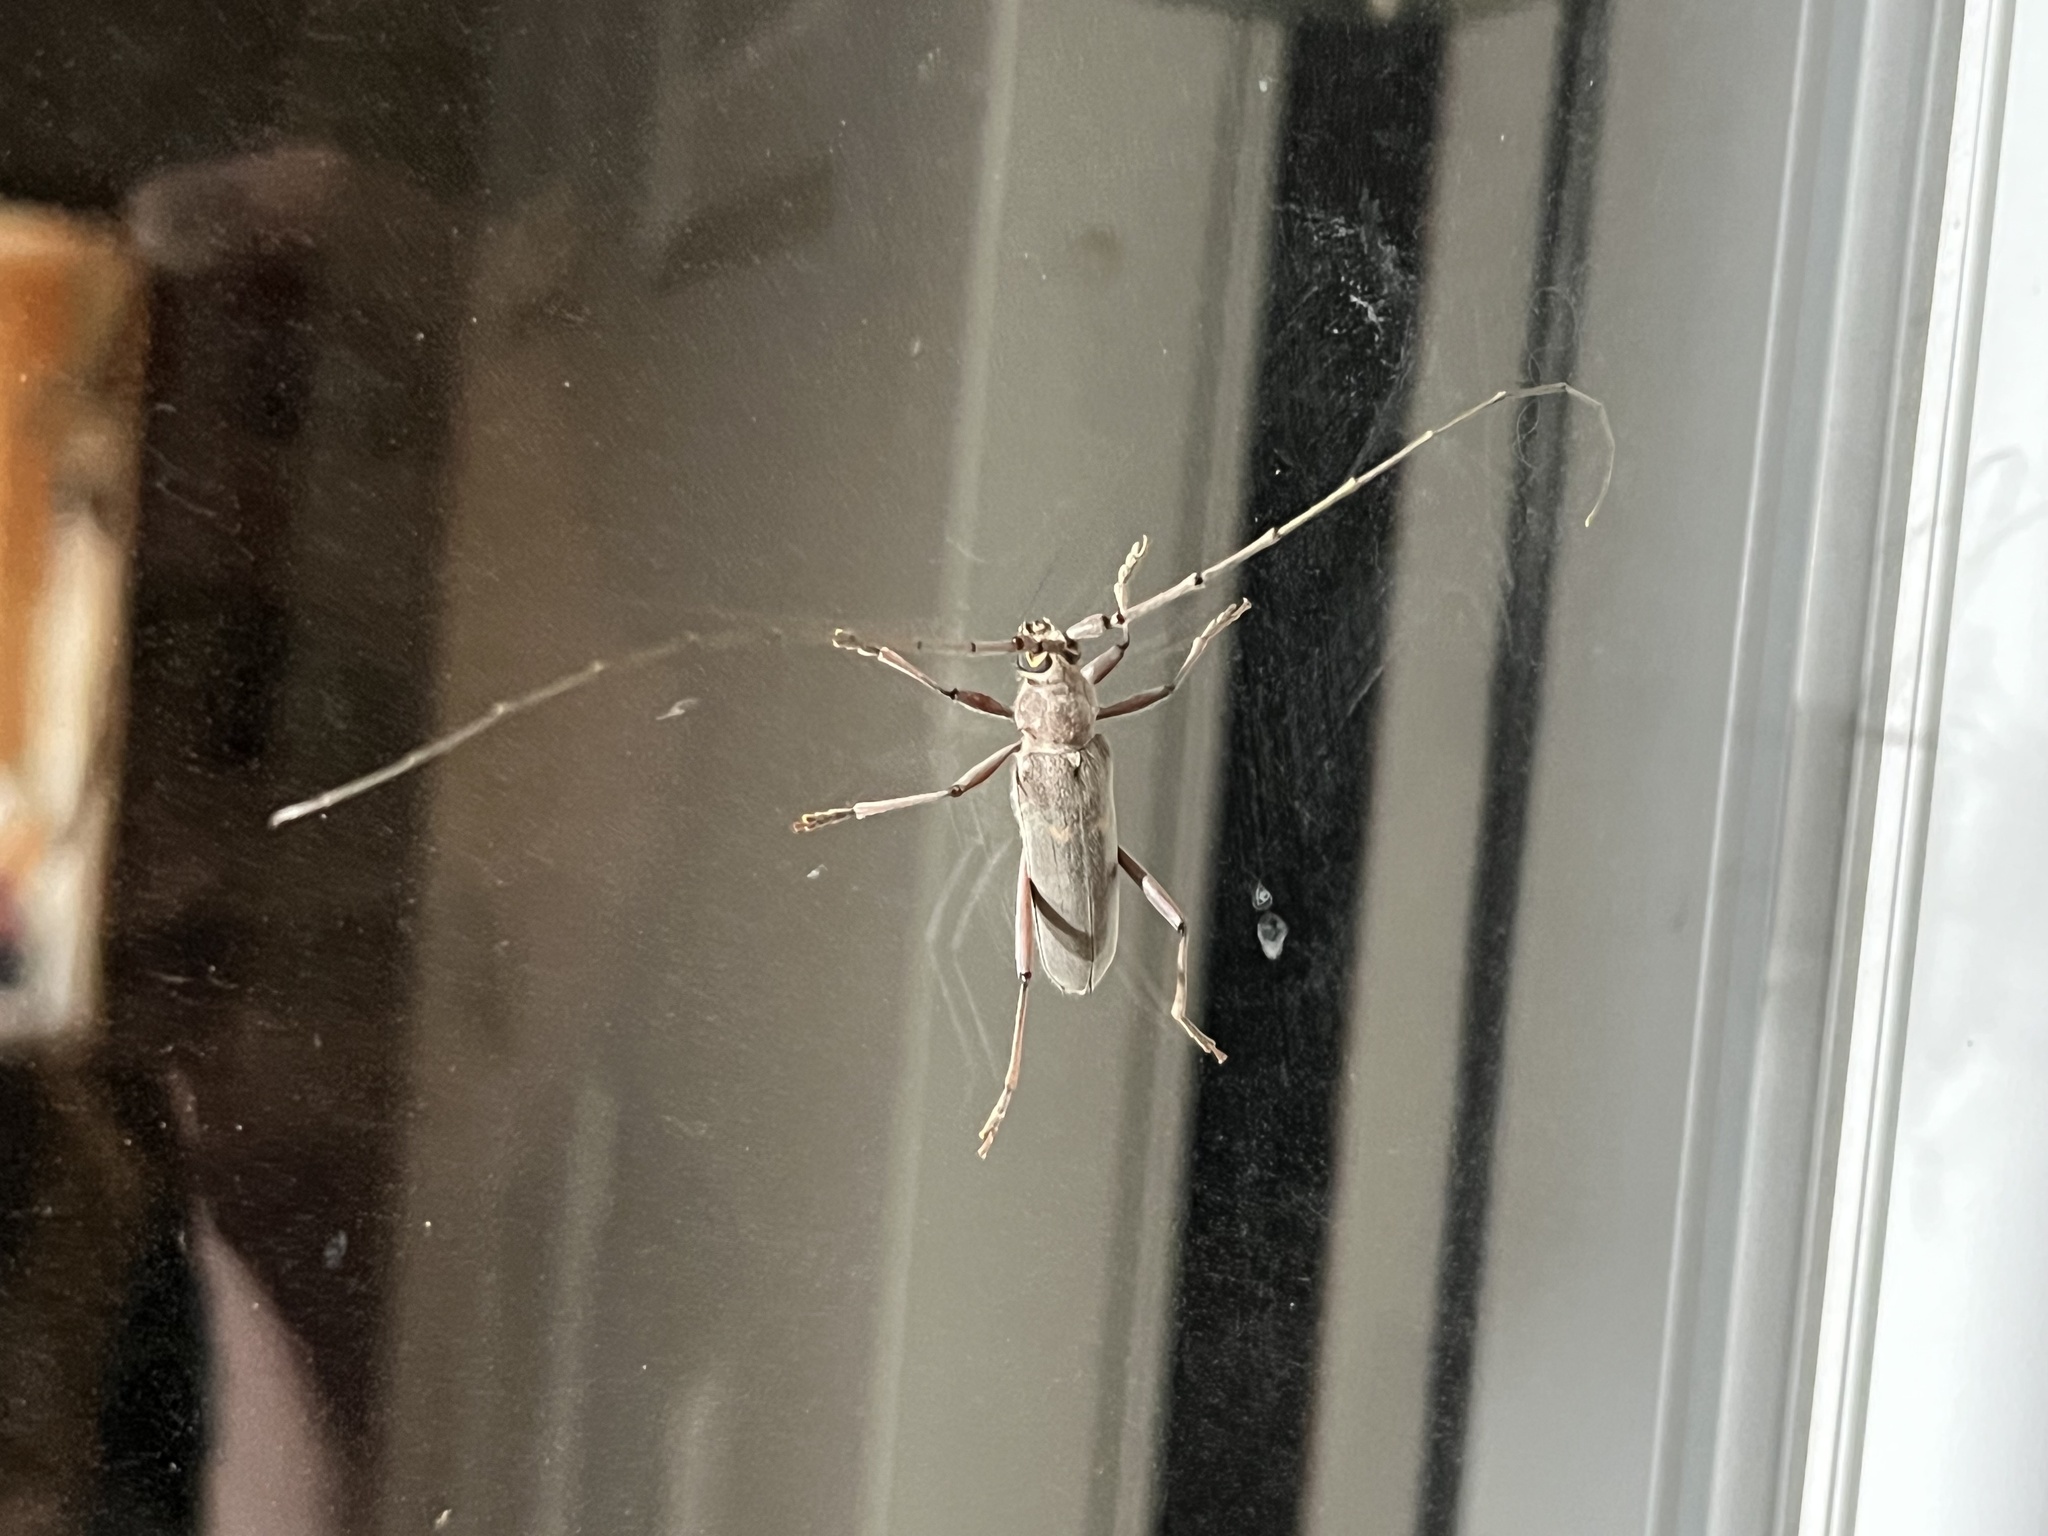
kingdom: Animalia
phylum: Arthropoda
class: Insecta
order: Coleoptera
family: Cerambycidae
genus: Knulliana
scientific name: Knulliana cincta
